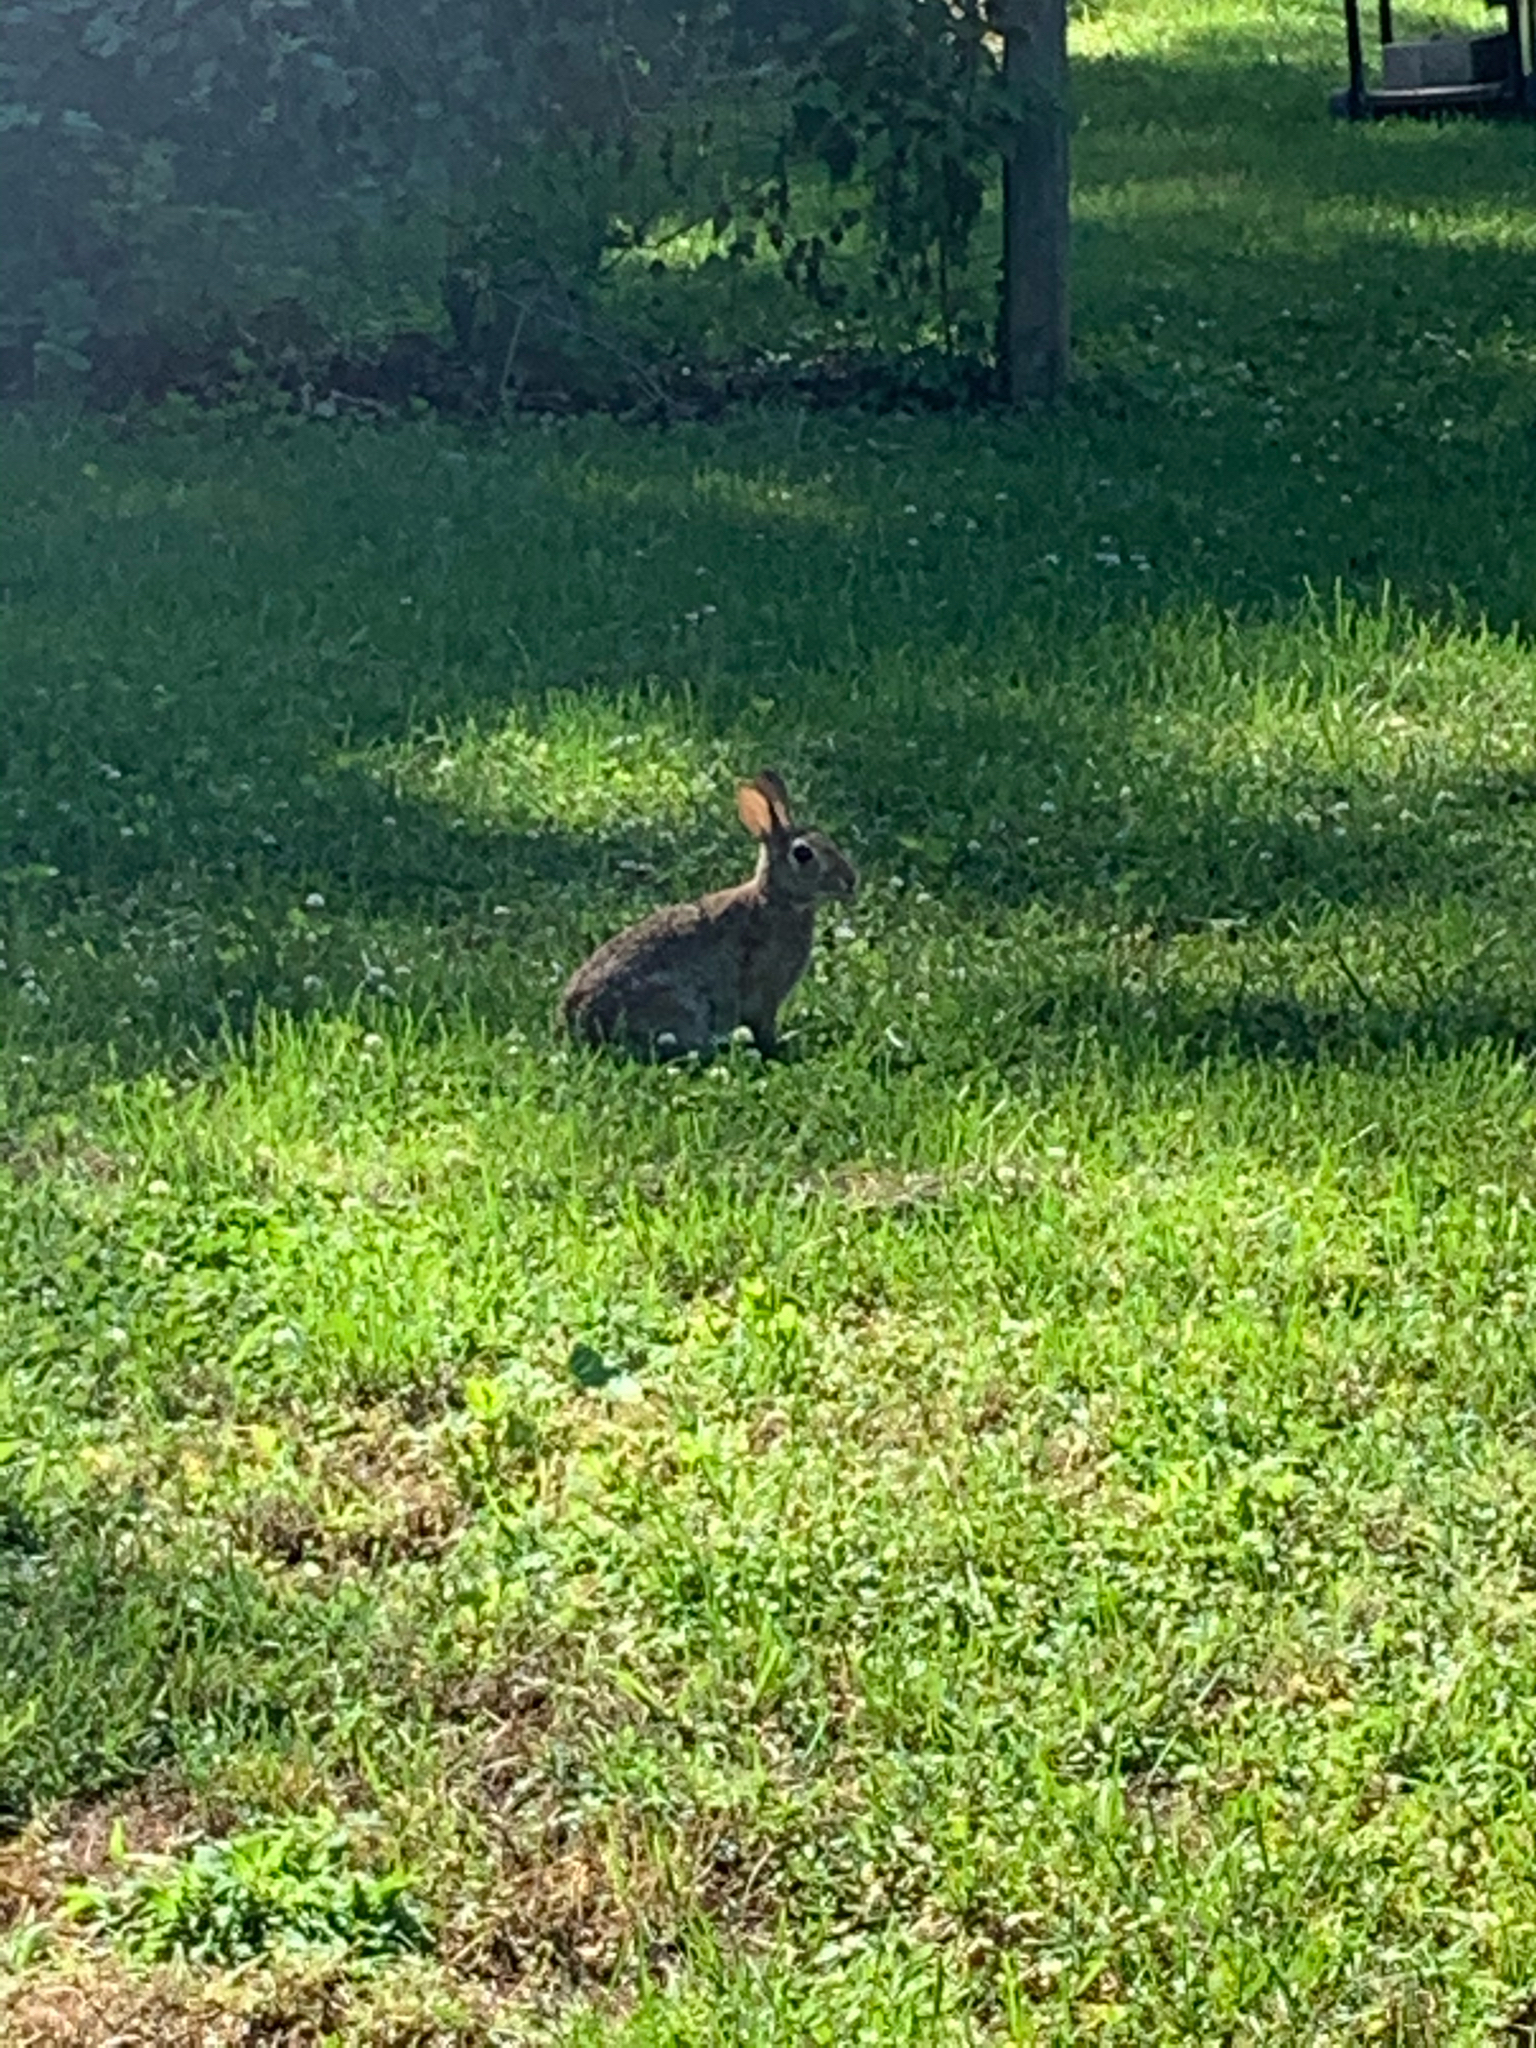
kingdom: Animalia
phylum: Chordata
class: Mammalia
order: Lagomorpha
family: Leporidae
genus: Sylvilagus
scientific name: Sylvilagus floridanus
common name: Eastern cottontail
